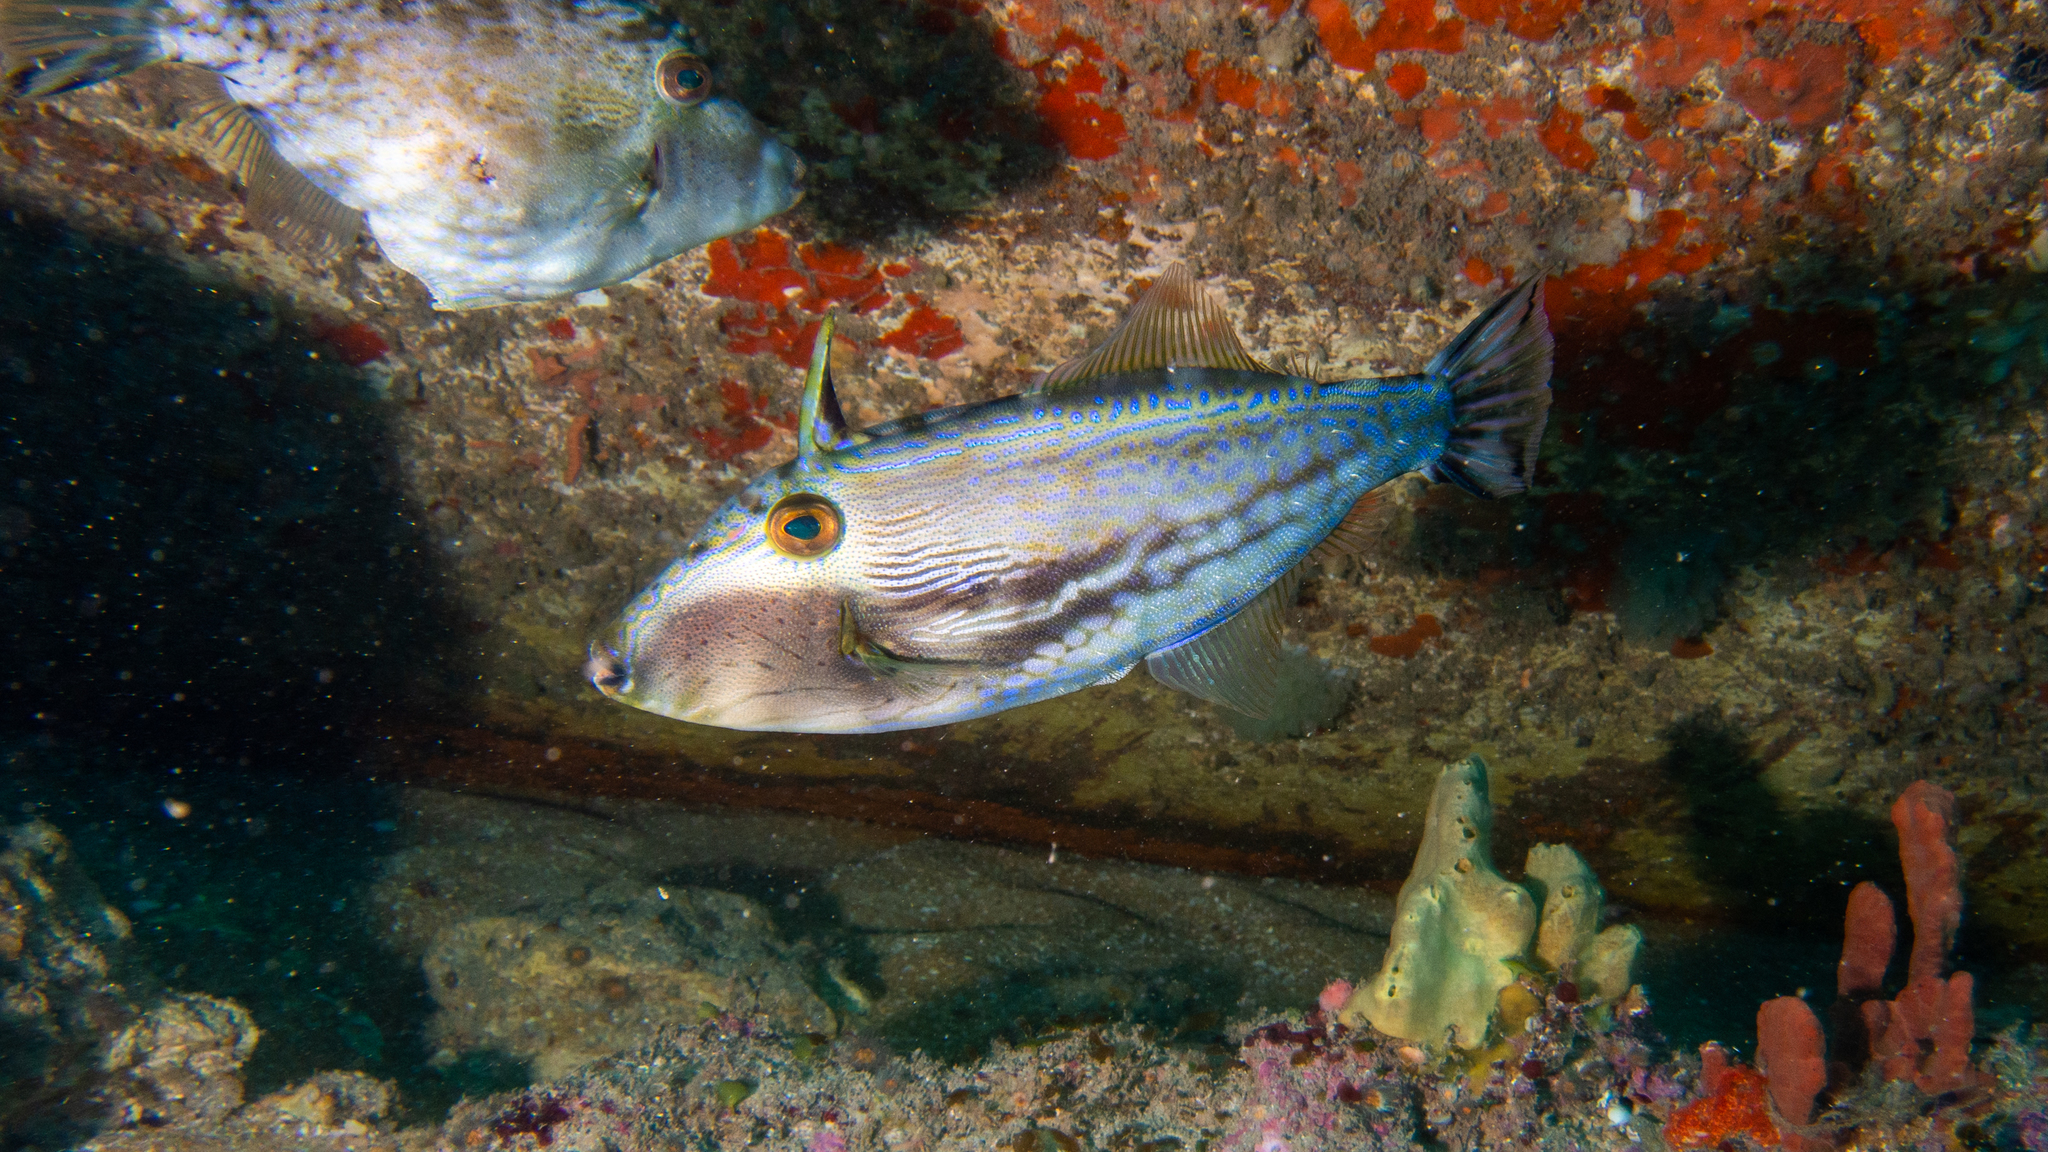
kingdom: Animalia
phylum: Chordata
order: Tetraodontiformes
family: Monacanthidae
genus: Scobinichthys
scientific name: Scobinichthys granulatus
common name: Rough leatherjacket
